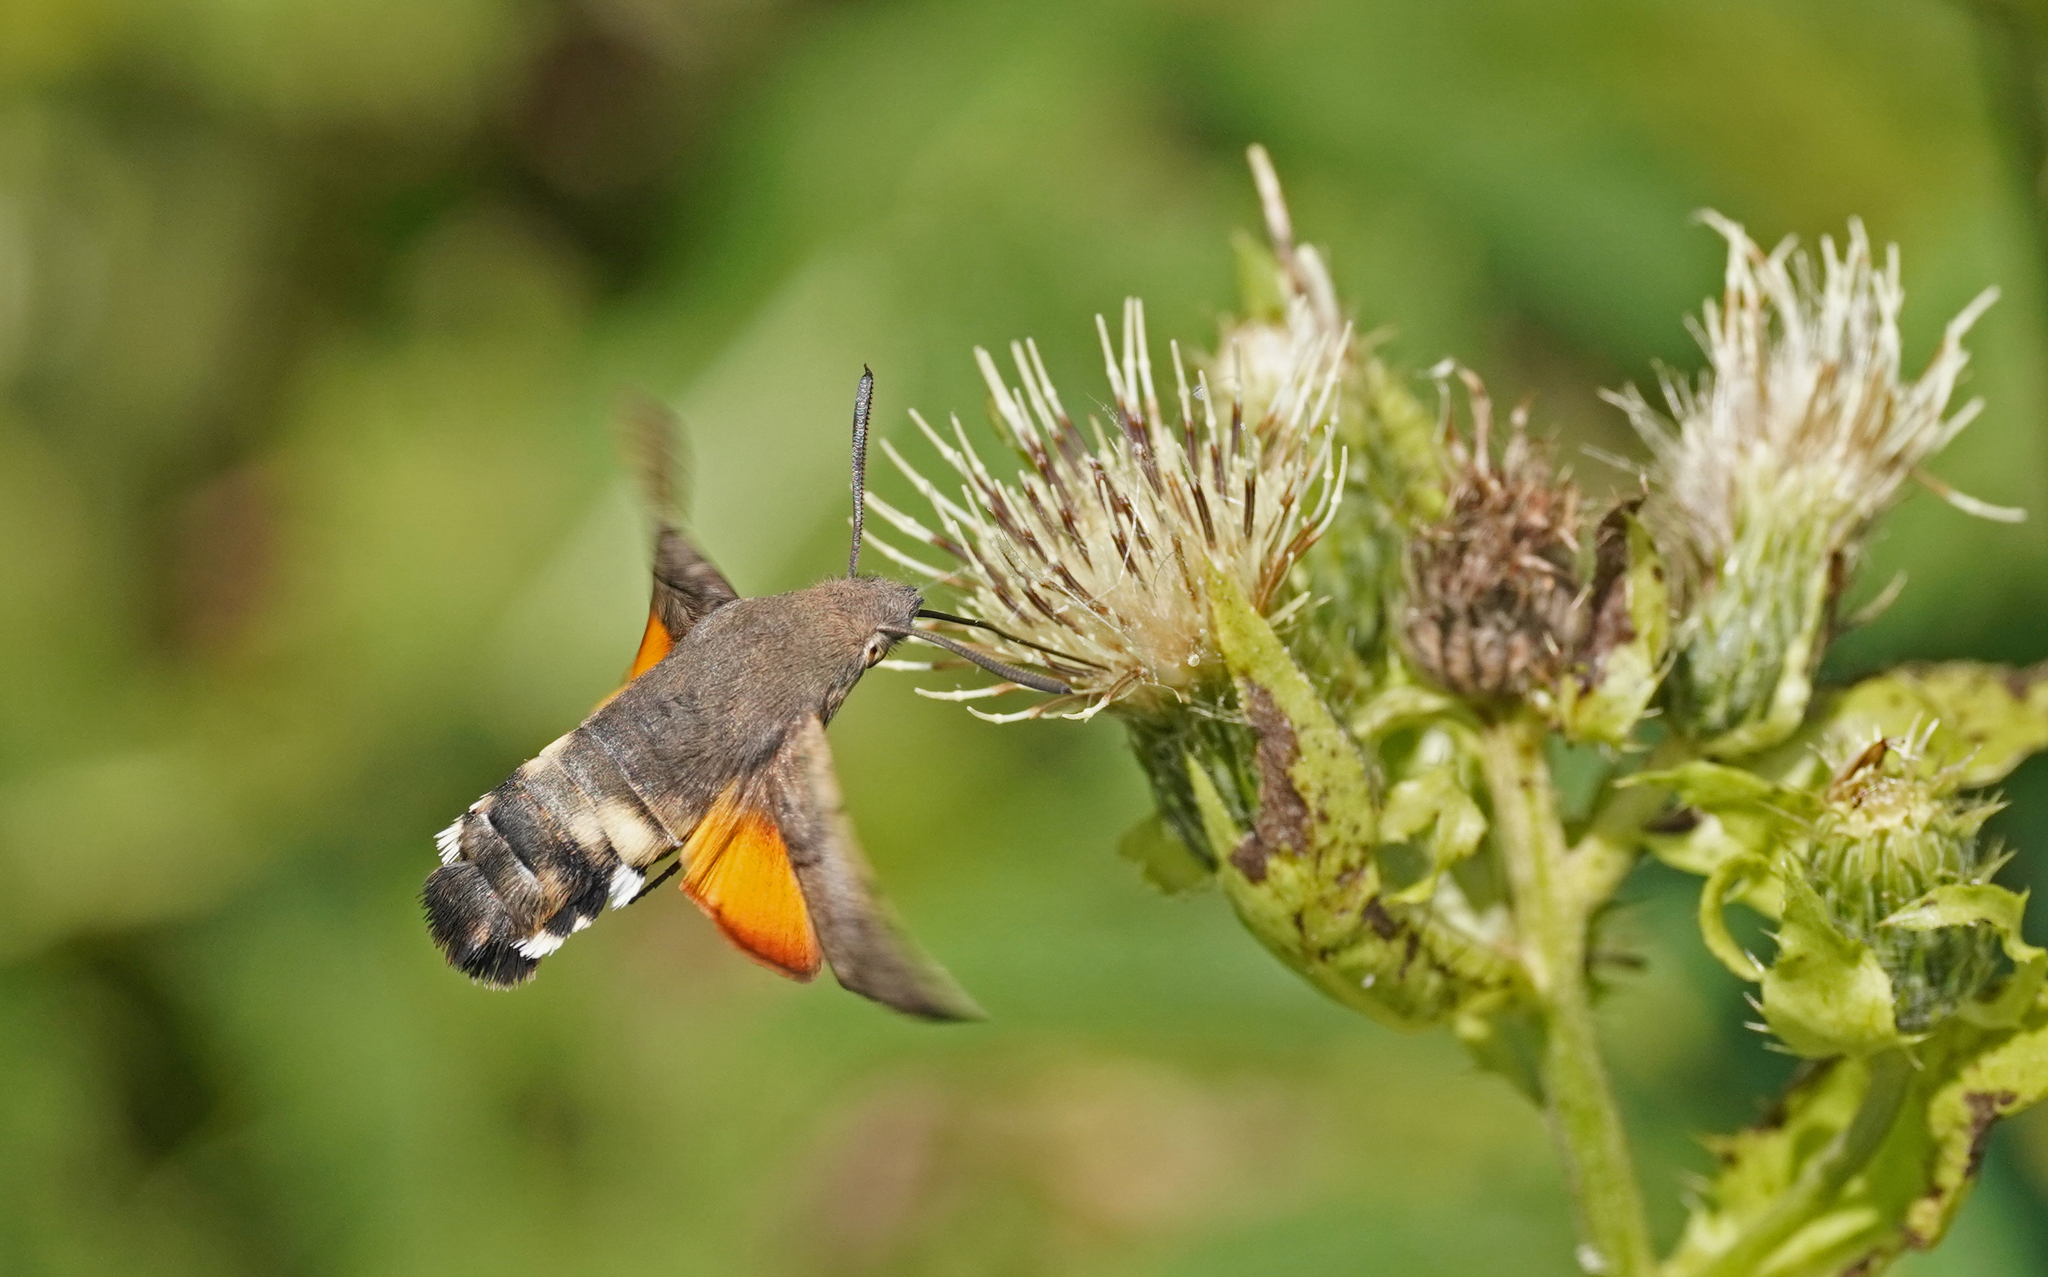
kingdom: Animalia
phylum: Arthropoda
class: Insecta
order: Lepidoptera
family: Sphingidae
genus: Macroglossum
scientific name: Macroglossum stellatarum
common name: Humming-bird hawk-moth
